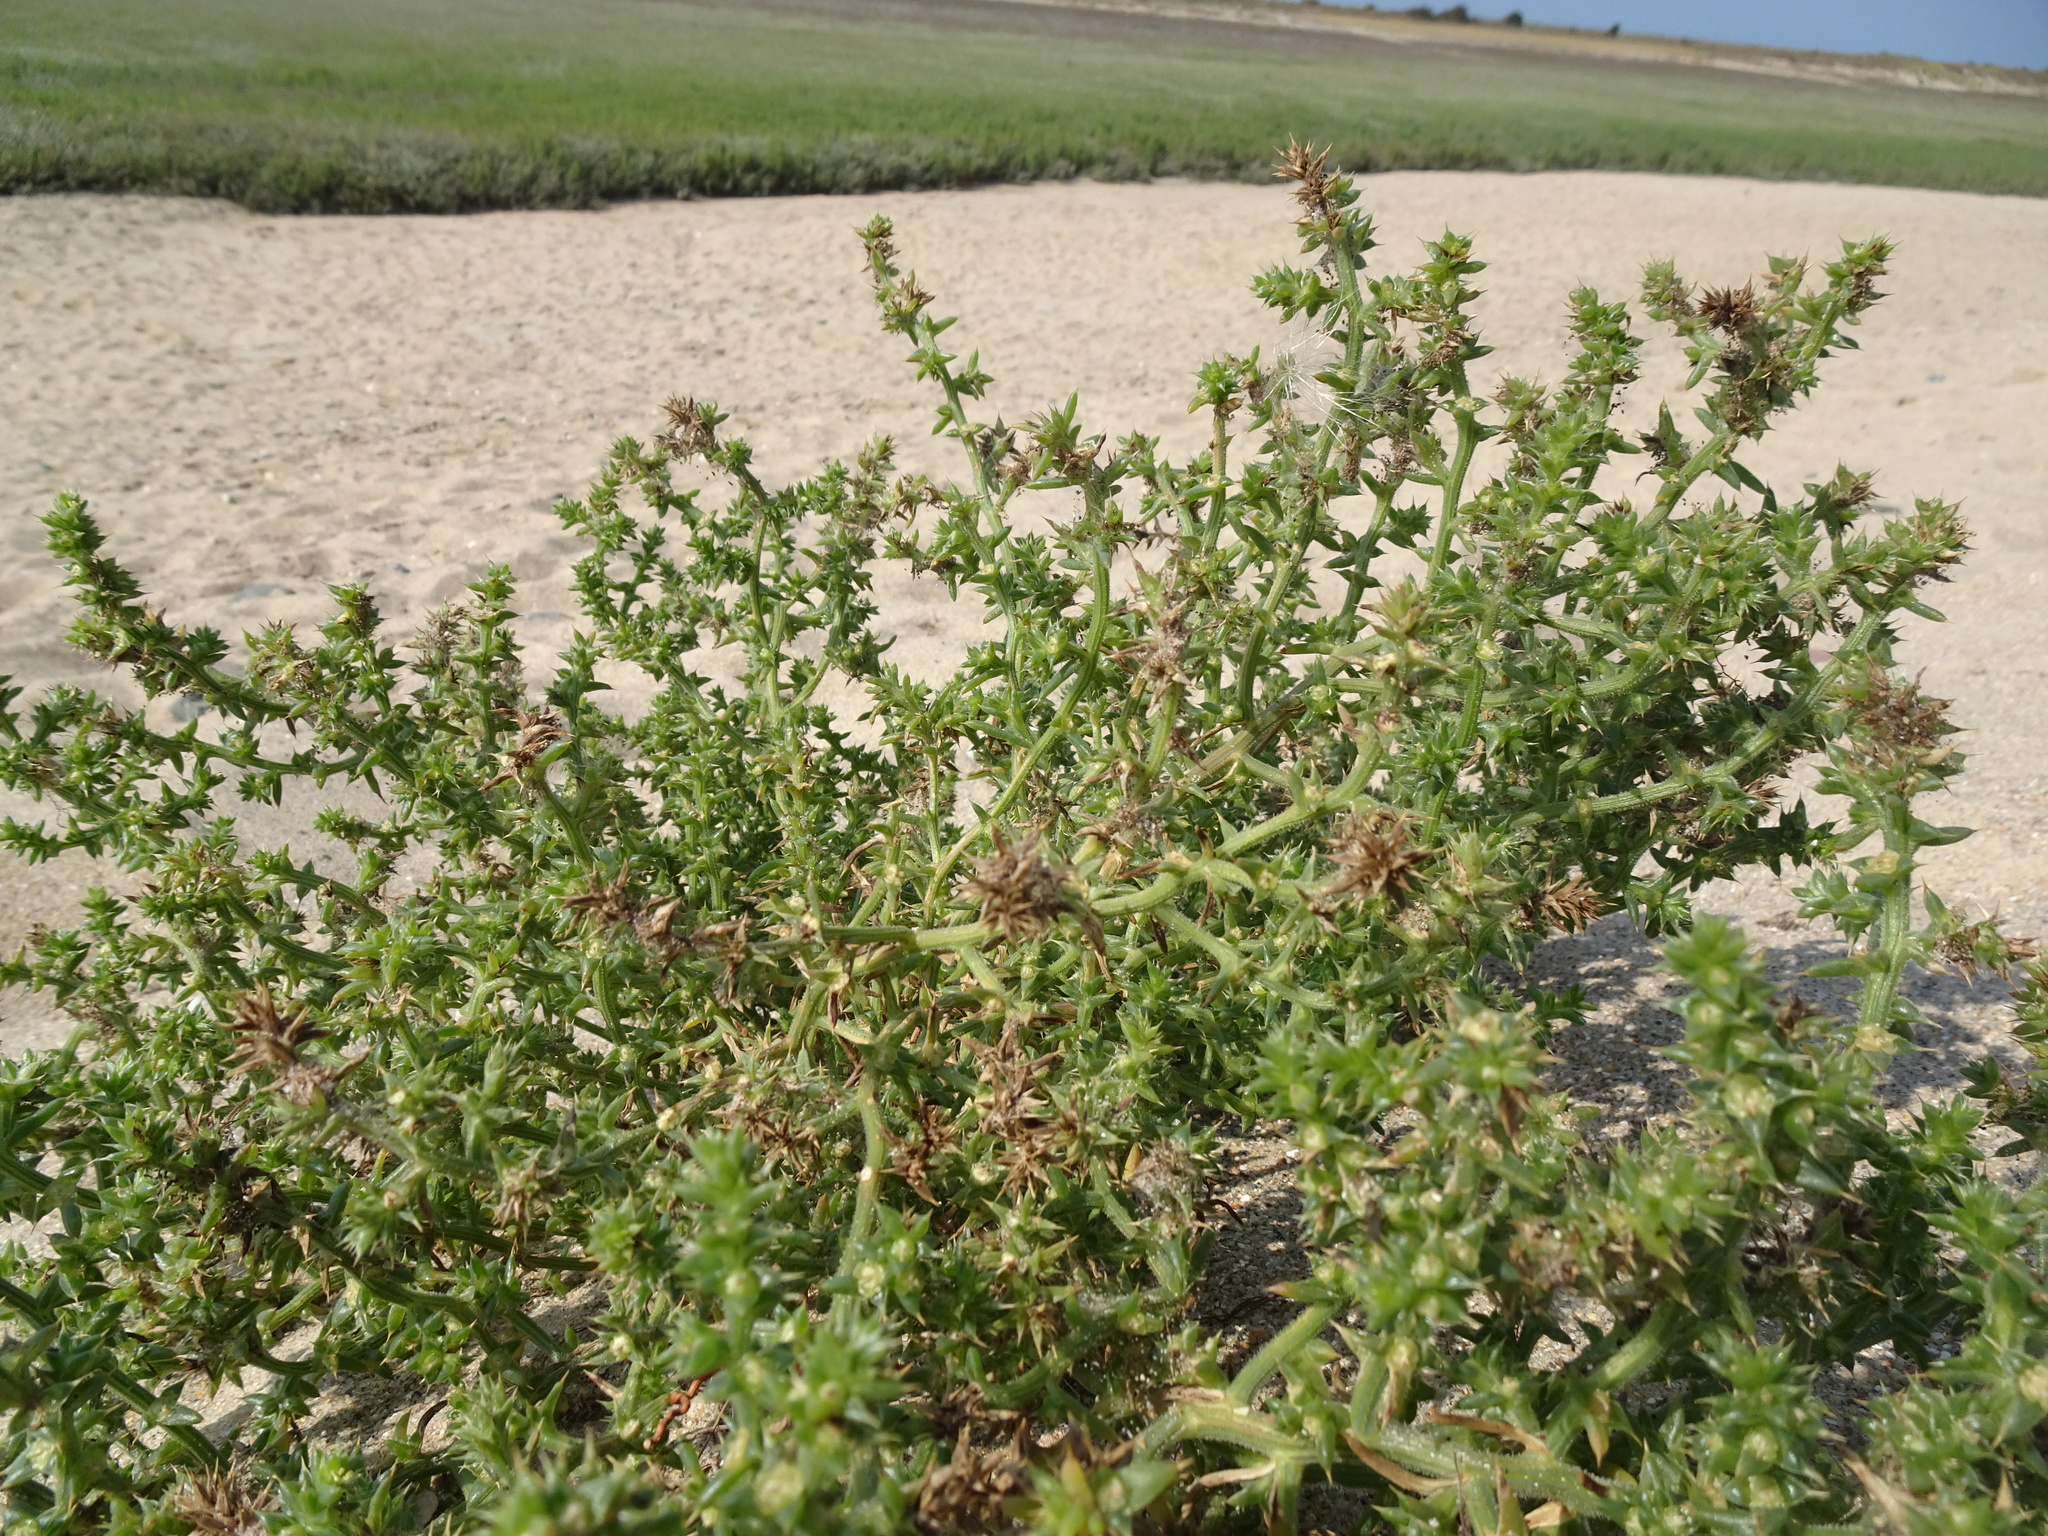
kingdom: Plantae
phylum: Tracheophyta
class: Magnoliopsida
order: Caryophyllales
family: Amaranthaceae
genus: Salsola
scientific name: Salsola kali
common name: Saltwort
